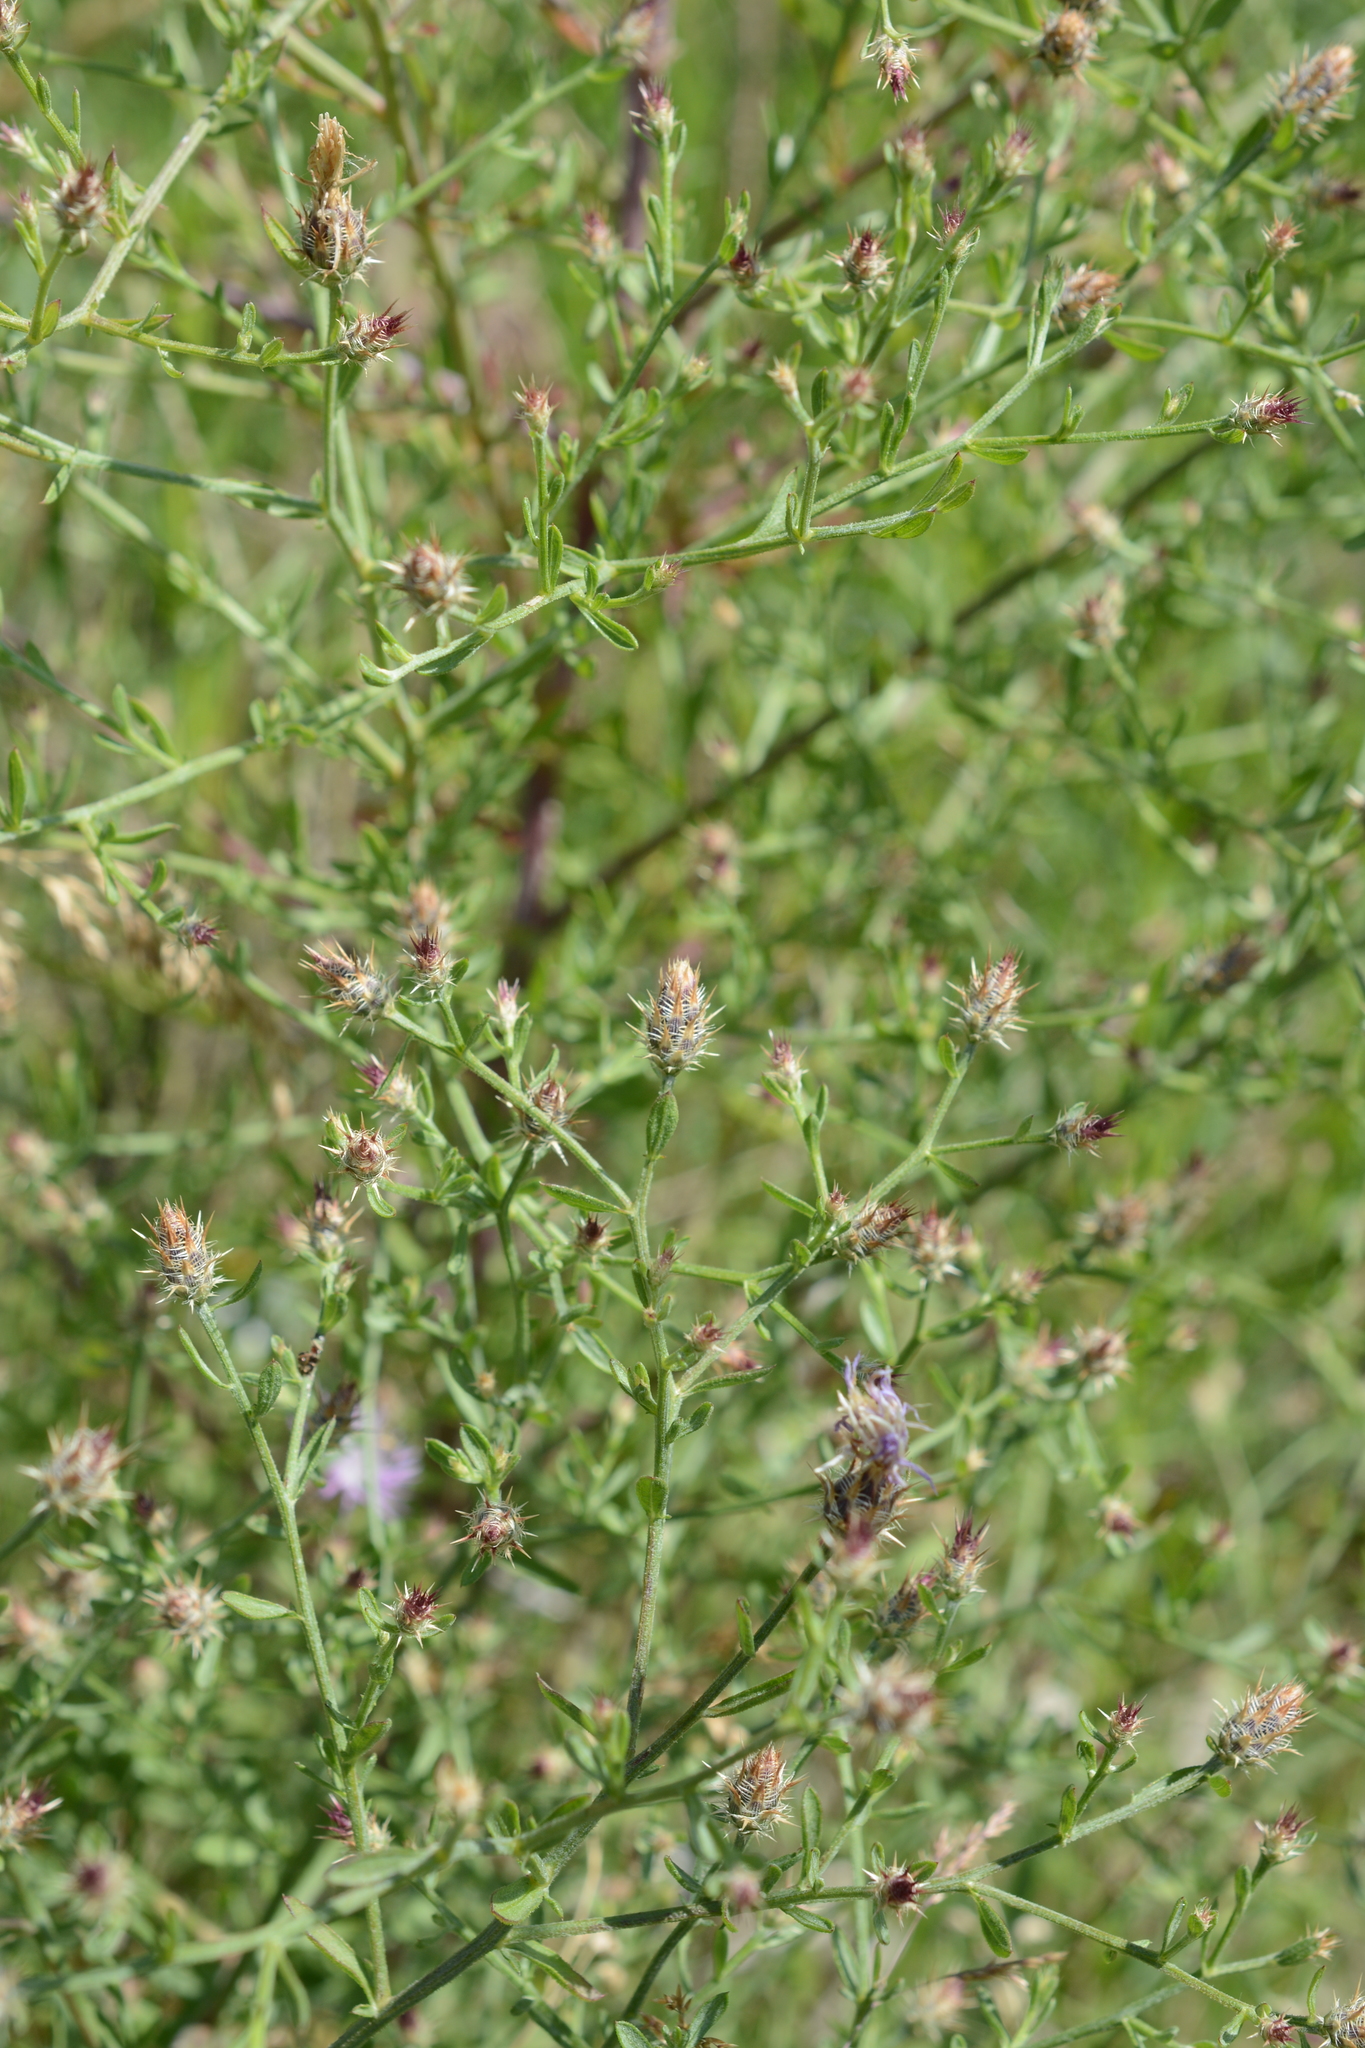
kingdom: Plantae
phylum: Tracheophyta
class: Magnoliopsida
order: Asterales
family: Asteraceae
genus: Centaurea
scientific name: Centaurea diffusa
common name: Diffuse knapweed
